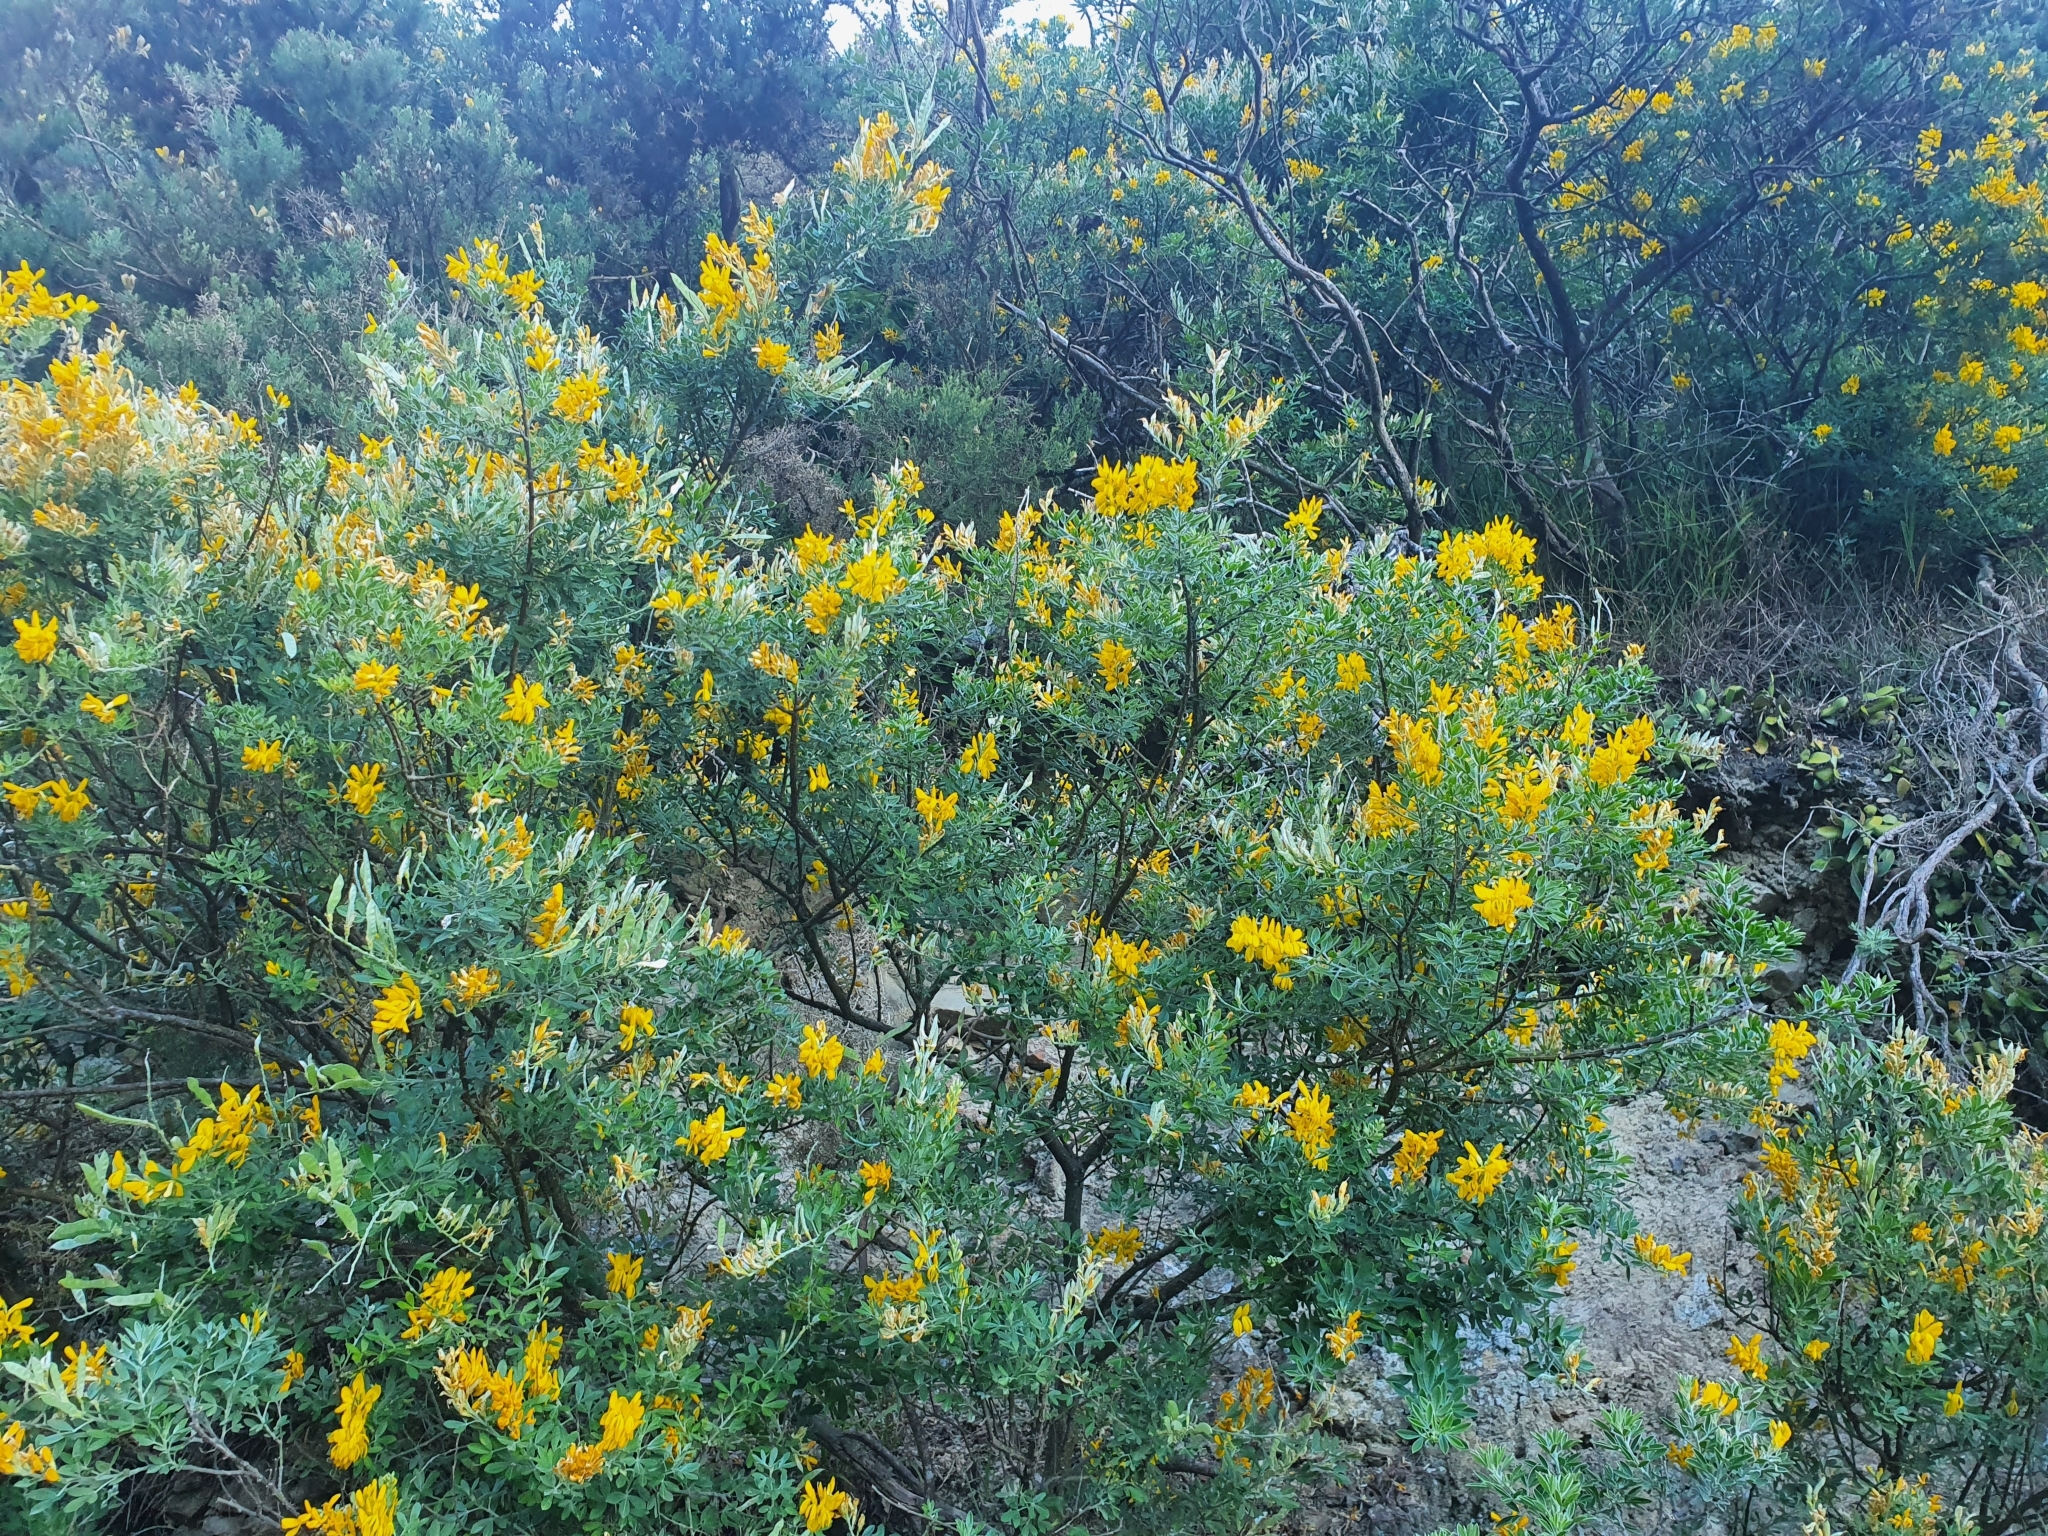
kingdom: Plantae
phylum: Tracheophyta
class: Magnoliopsida
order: Fabales
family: Fabaceae
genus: Genista
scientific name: Genista stenopetala
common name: Leafy broom
